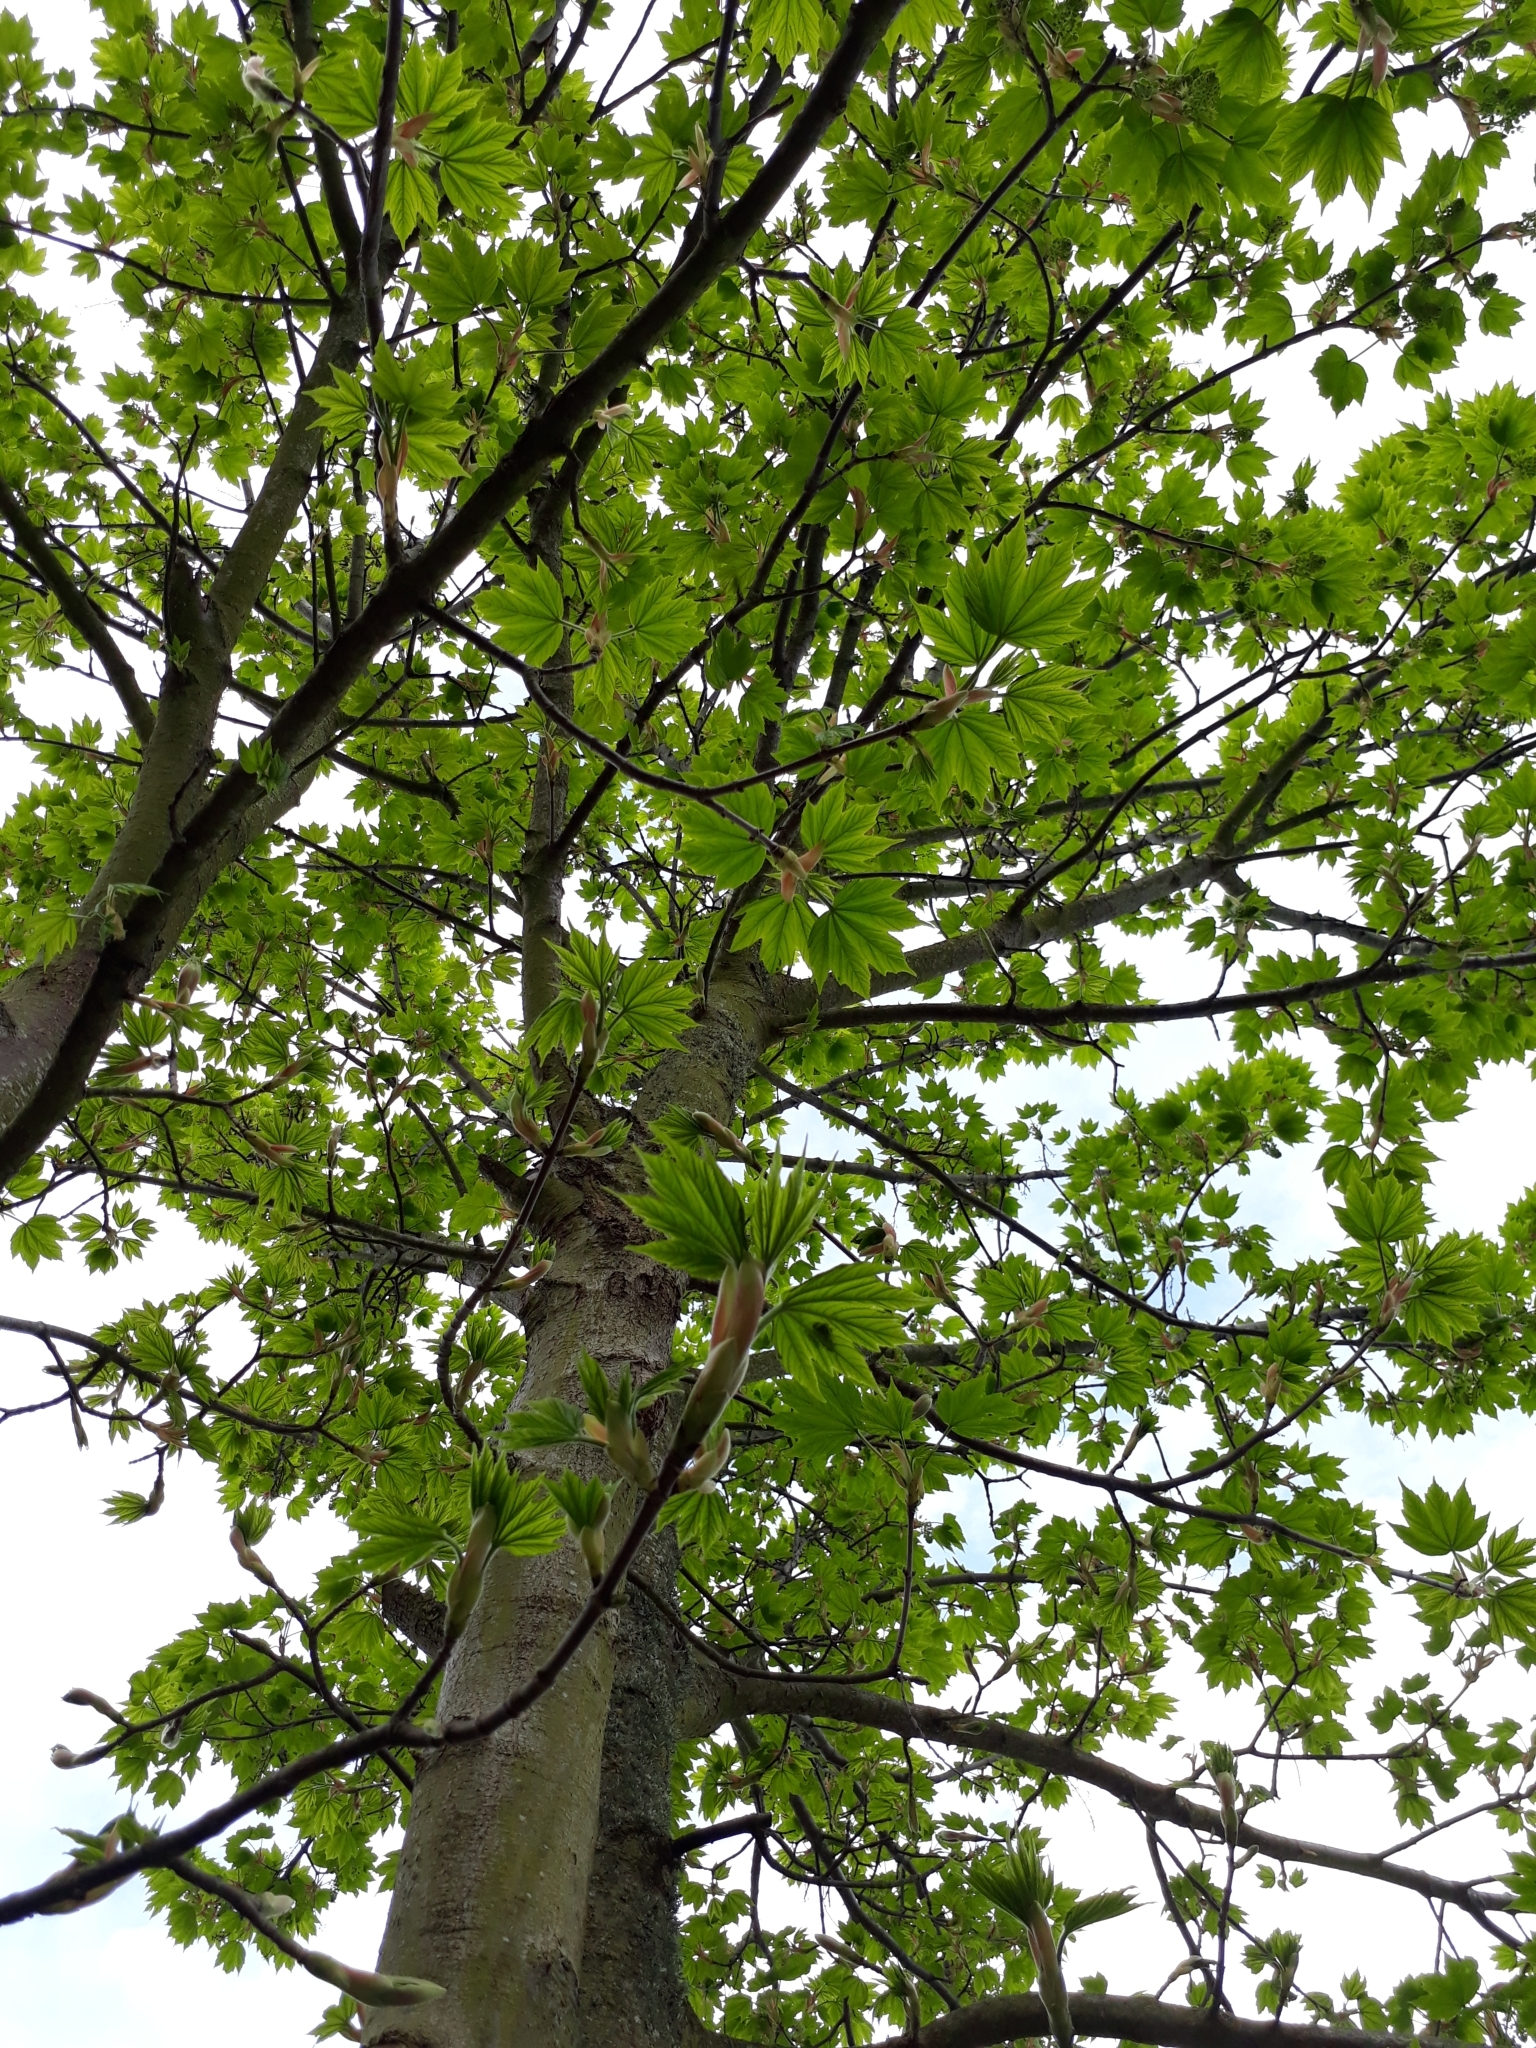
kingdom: Plantae
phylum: Tracheophyta
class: Magnoliopsida
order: Sapindales
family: Sapindaceae
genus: Acer
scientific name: Acer pseudoplatanus
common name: Sycamore
